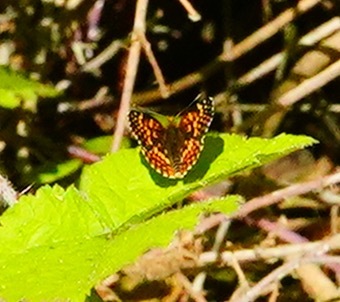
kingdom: Animalia
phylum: Arthropoda
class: Insecta
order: Lepidoptera
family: Nymphalidae
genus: Chlosyne
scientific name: Chlosyne palla
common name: Northern checkerspot
